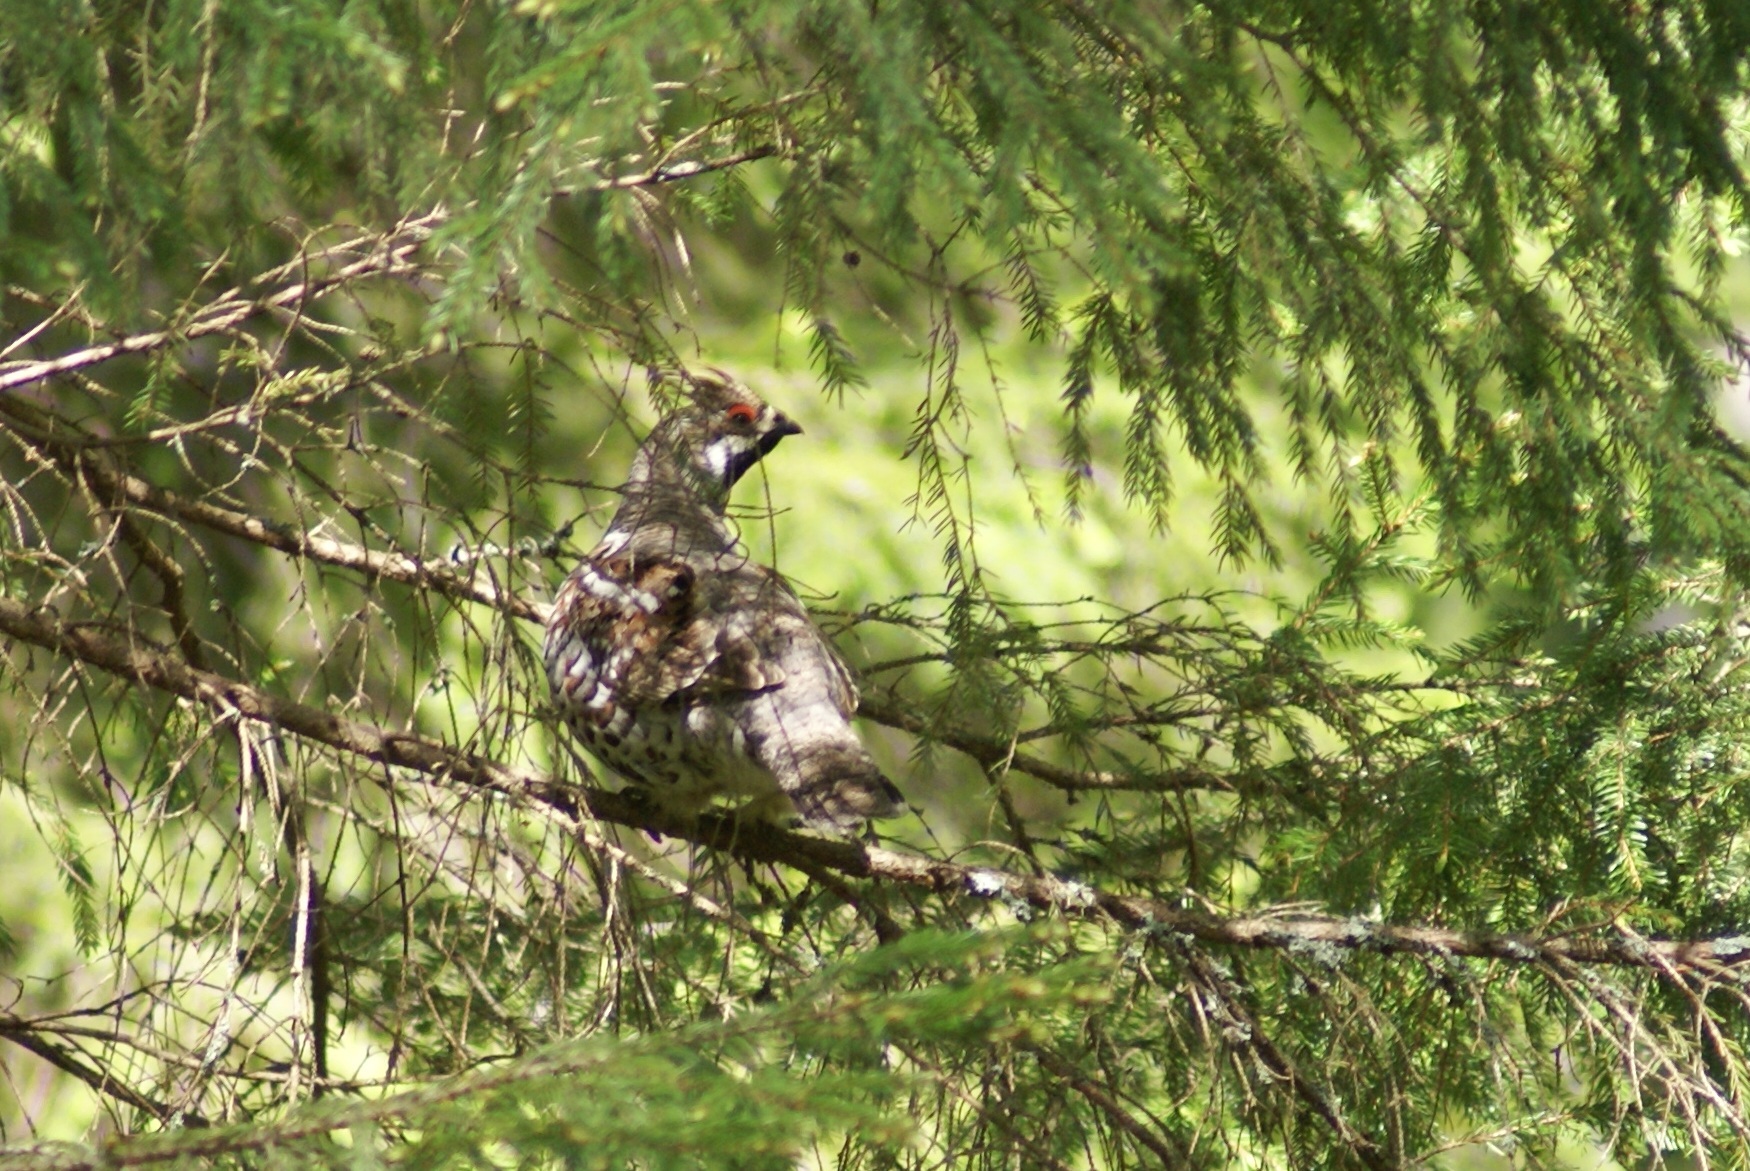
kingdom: Animalia
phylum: Chordata
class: Aves
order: Galliformes
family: Phasianidae
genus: Tetrastes
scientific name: Tetrastes bonasia
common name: Hazel grouse
